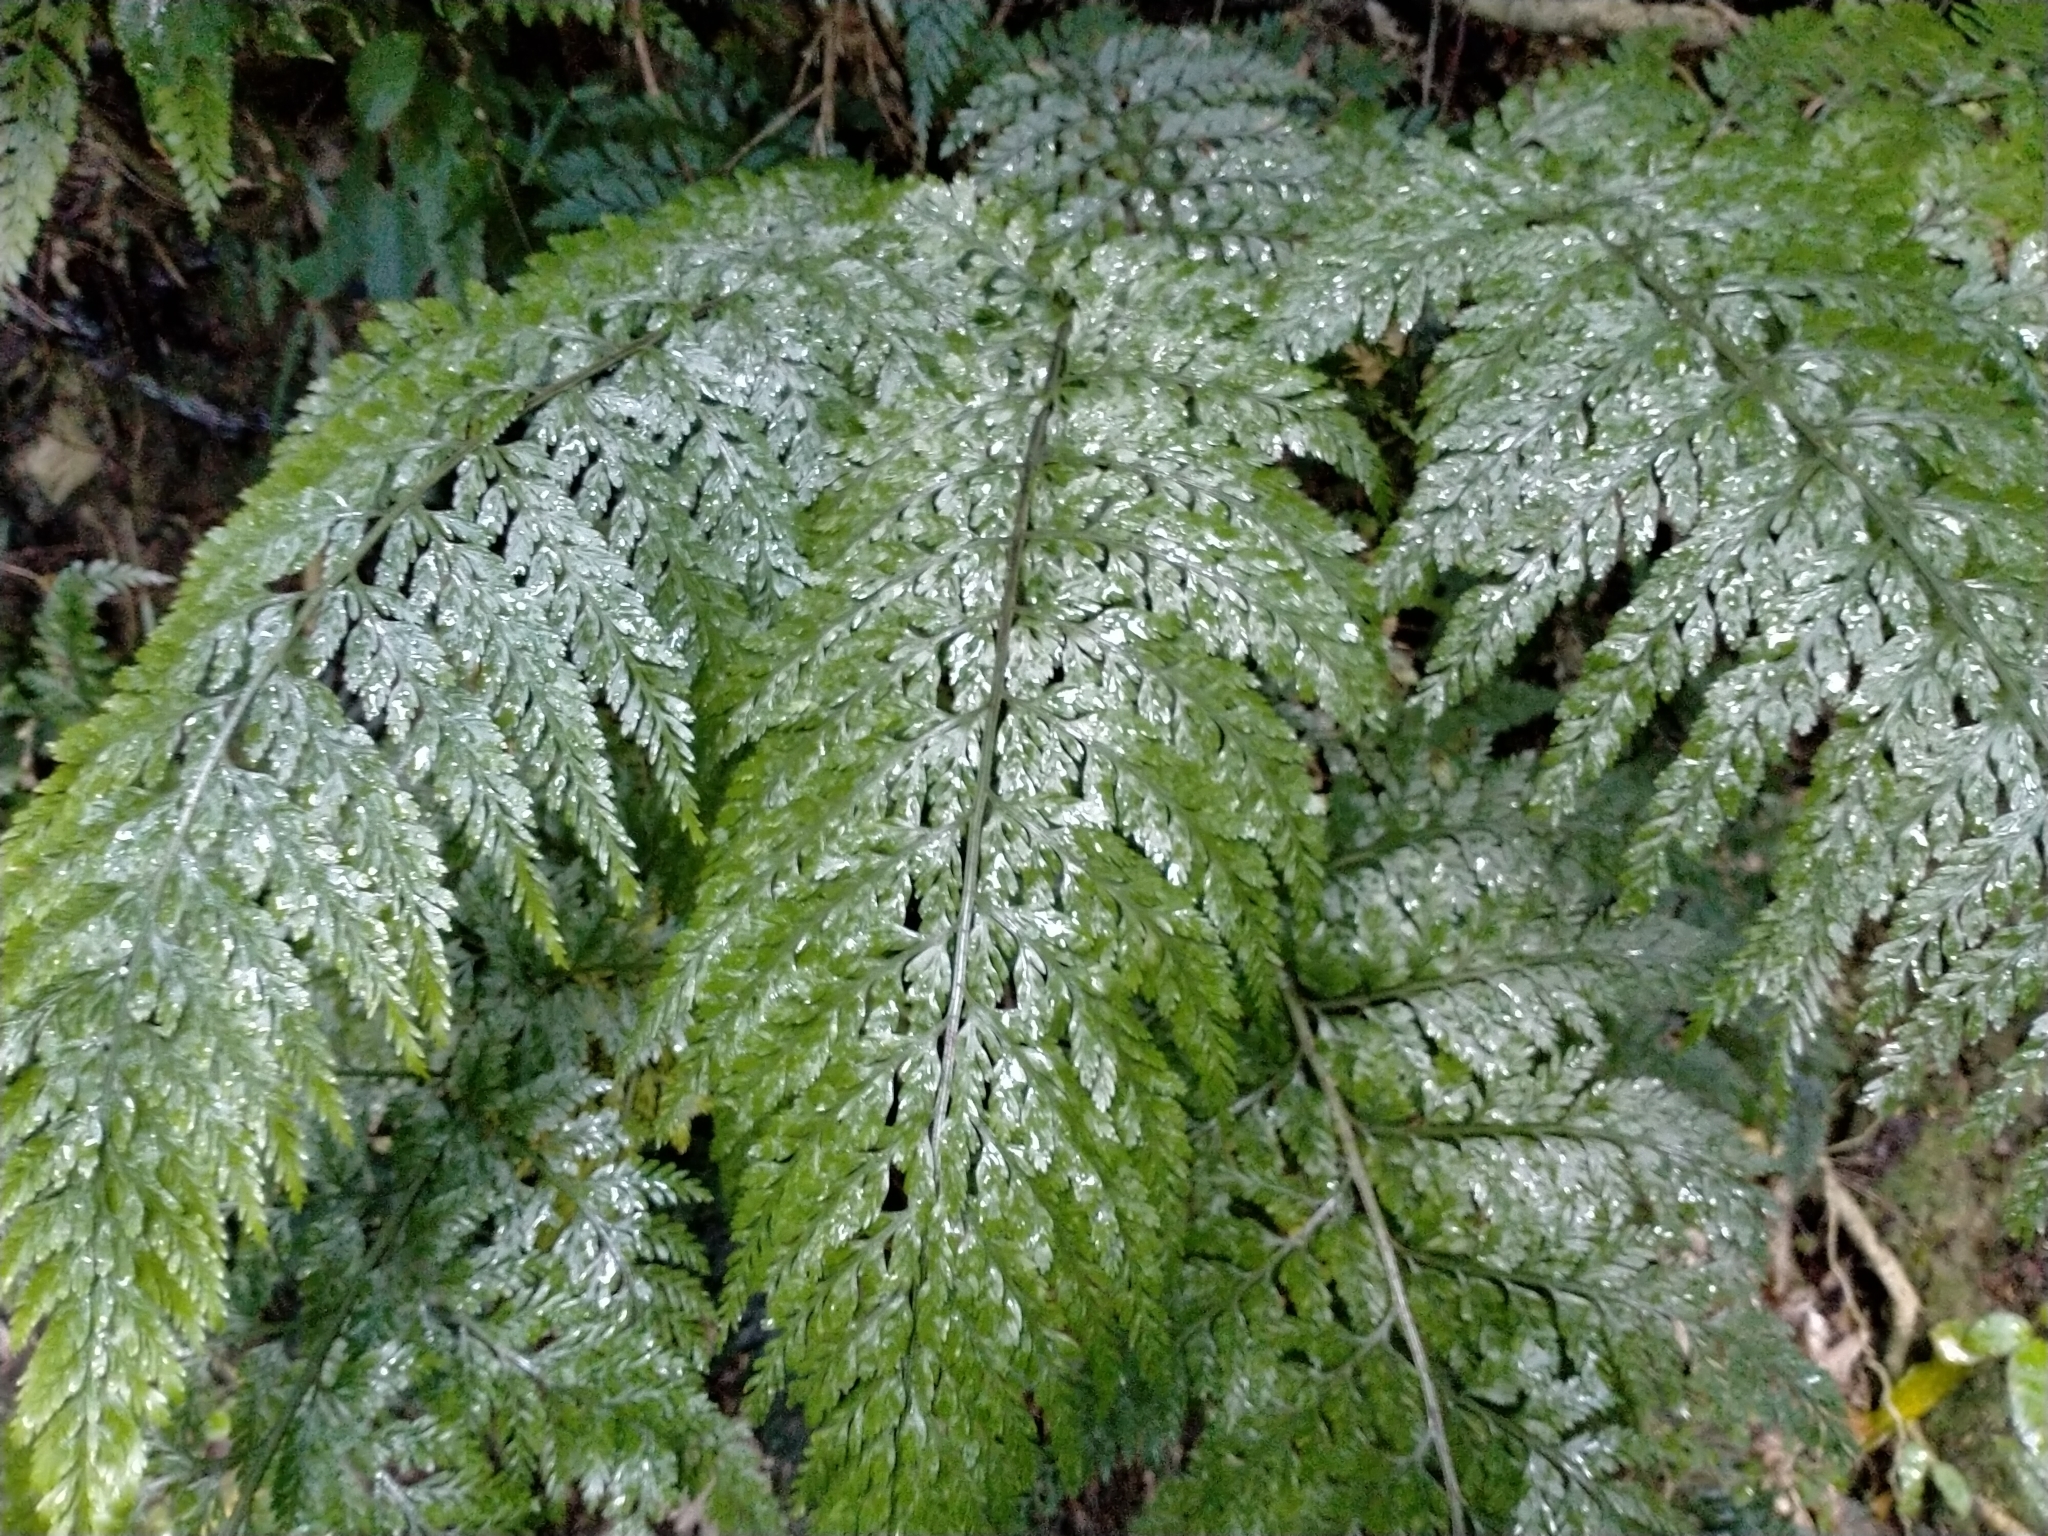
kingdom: Plantae
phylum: Tracheophyta
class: Polypodiopsida
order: Polypodiales
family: Aspleniaceae
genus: Asplenium
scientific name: Asplenium
